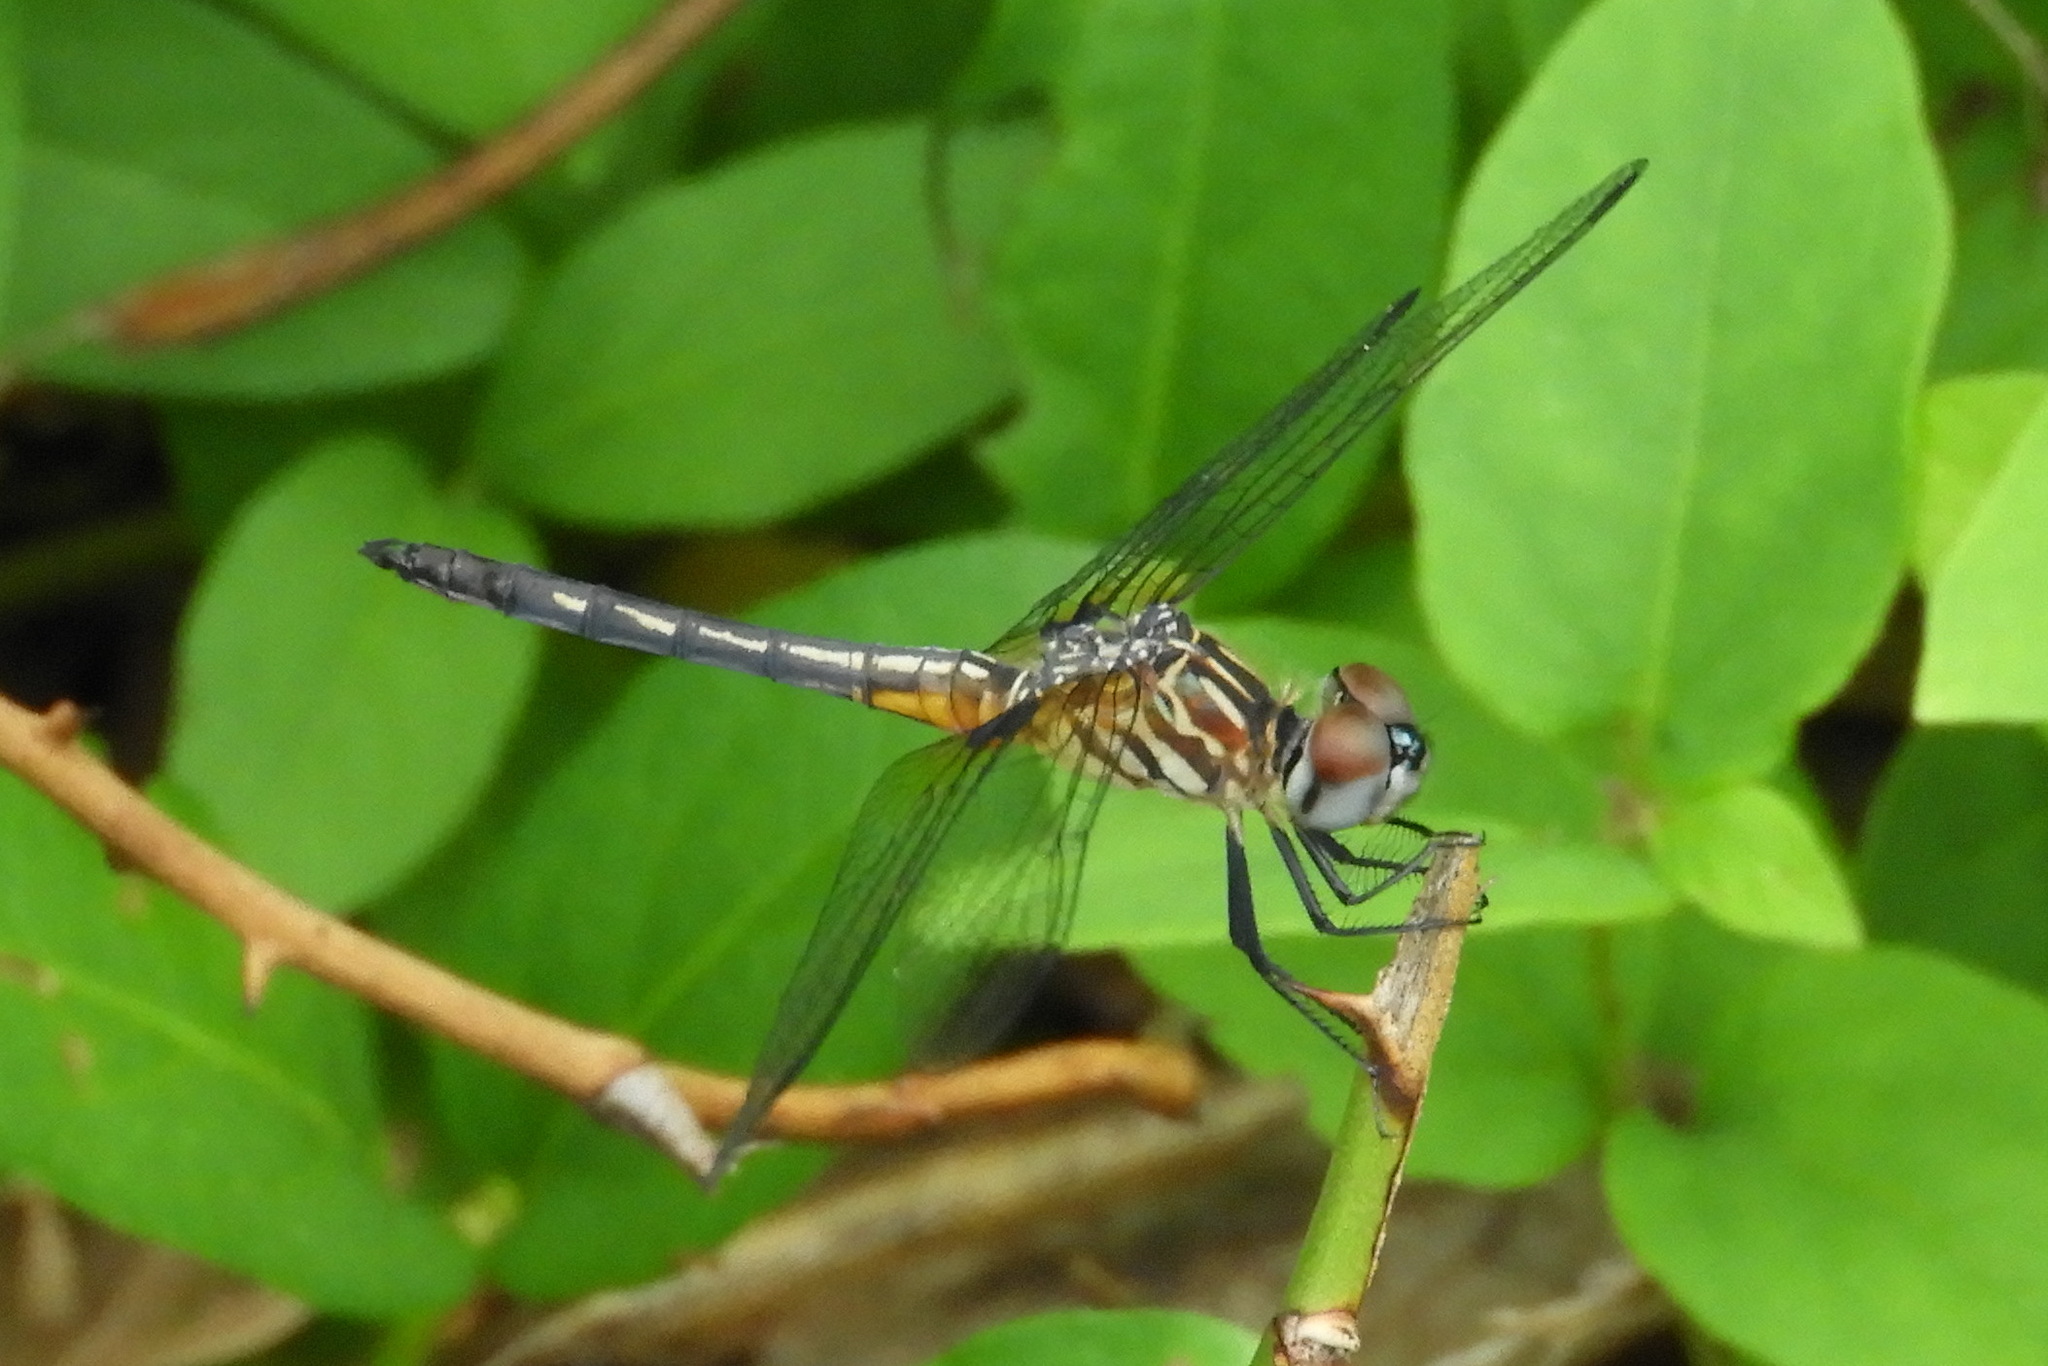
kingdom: Animalia
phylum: Arthropoda
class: Insecta
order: Odonata
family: Libellulidae
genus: Pachydiplax
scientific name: Pachydiplax longipennis
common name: Blue dasher
